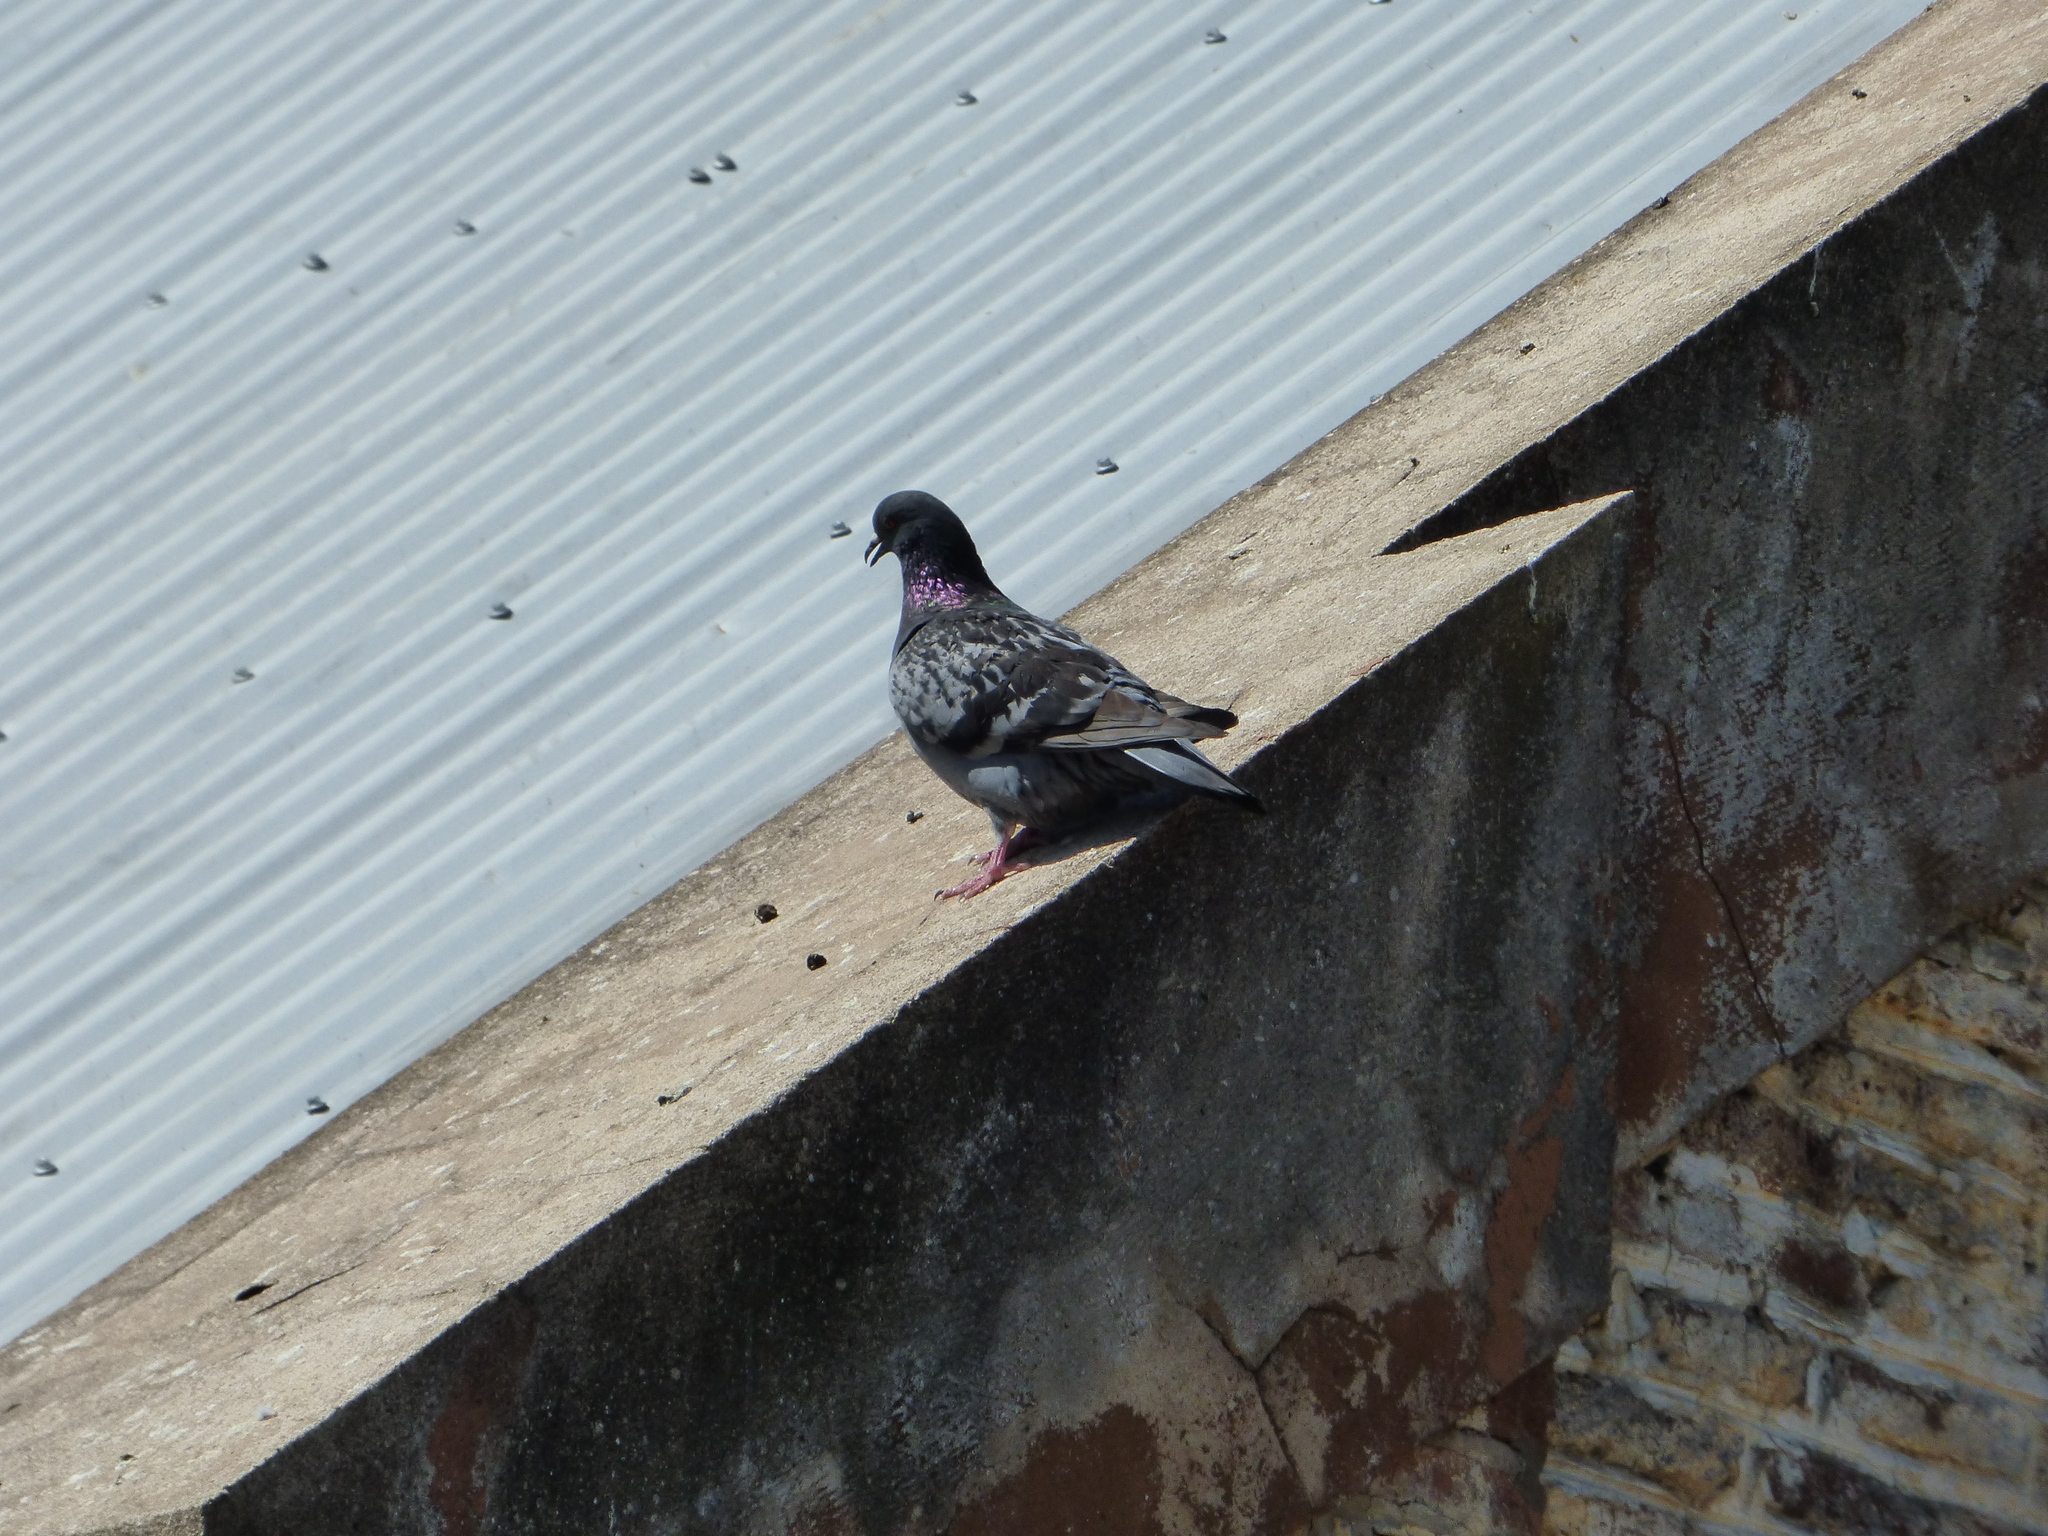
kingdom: Animalia
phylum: Chordata
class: Aves
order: Columbiformes
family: Columbidae
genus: Columba
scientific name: Columba livia
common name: Rock pigeon
